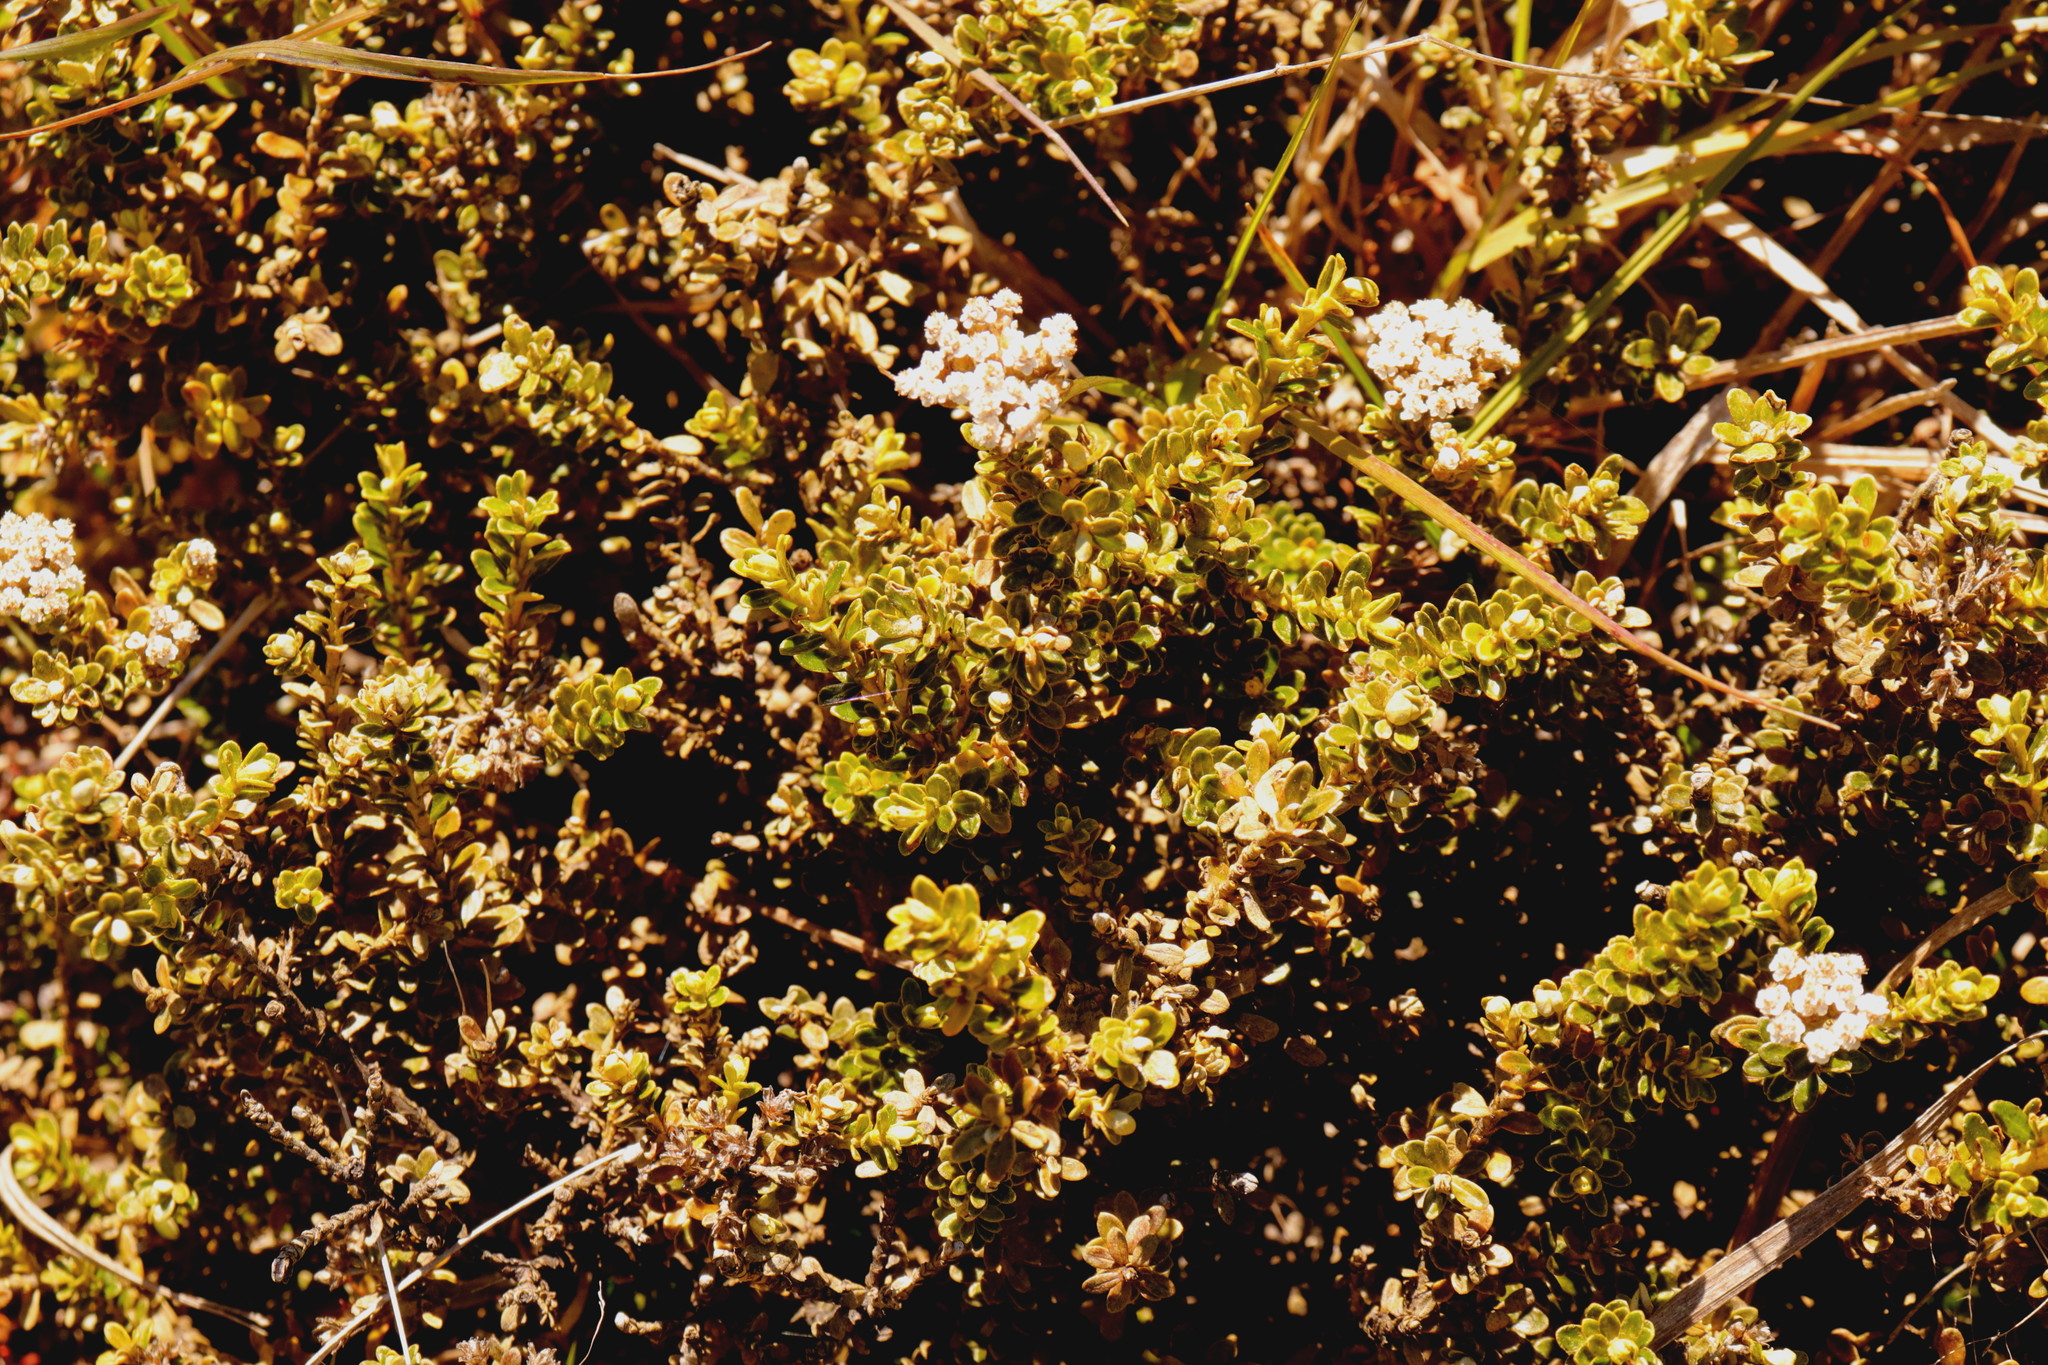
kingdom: Plantae
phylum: Tracheophyta
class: Magnoliopsida
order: Asterales
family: Asteraceae
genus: Ozothamnus
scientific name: Ozothamnus leptophyllus
